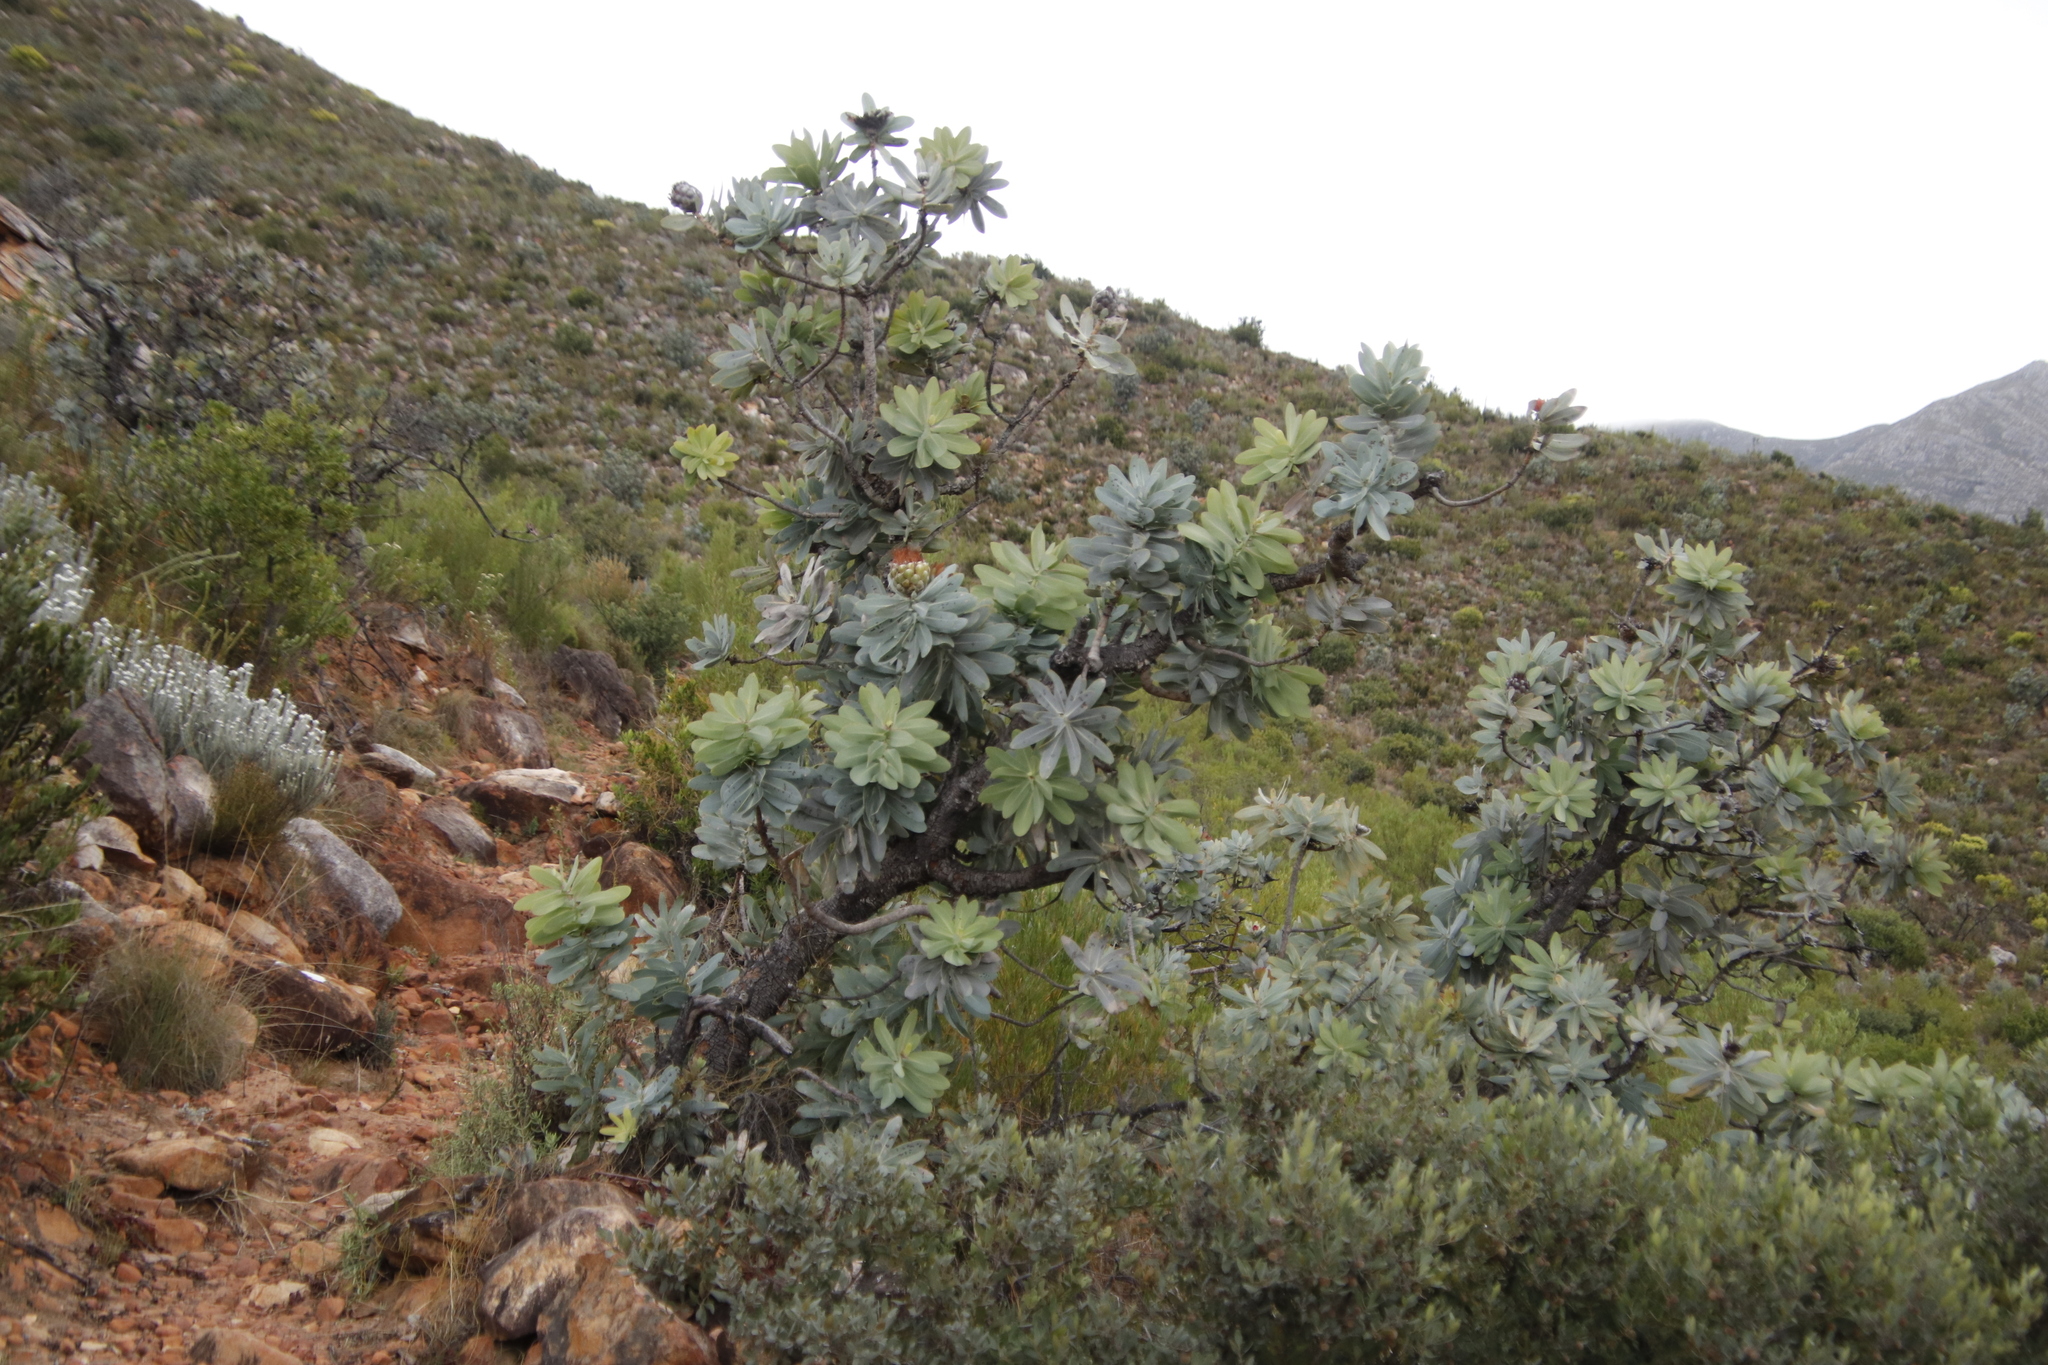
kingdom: Plantae
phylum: Tracheophyta
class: Magnoliopsida
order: Proteales
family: Proteaceae
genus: Protea
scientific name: Protea nitida
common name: Tree protea
